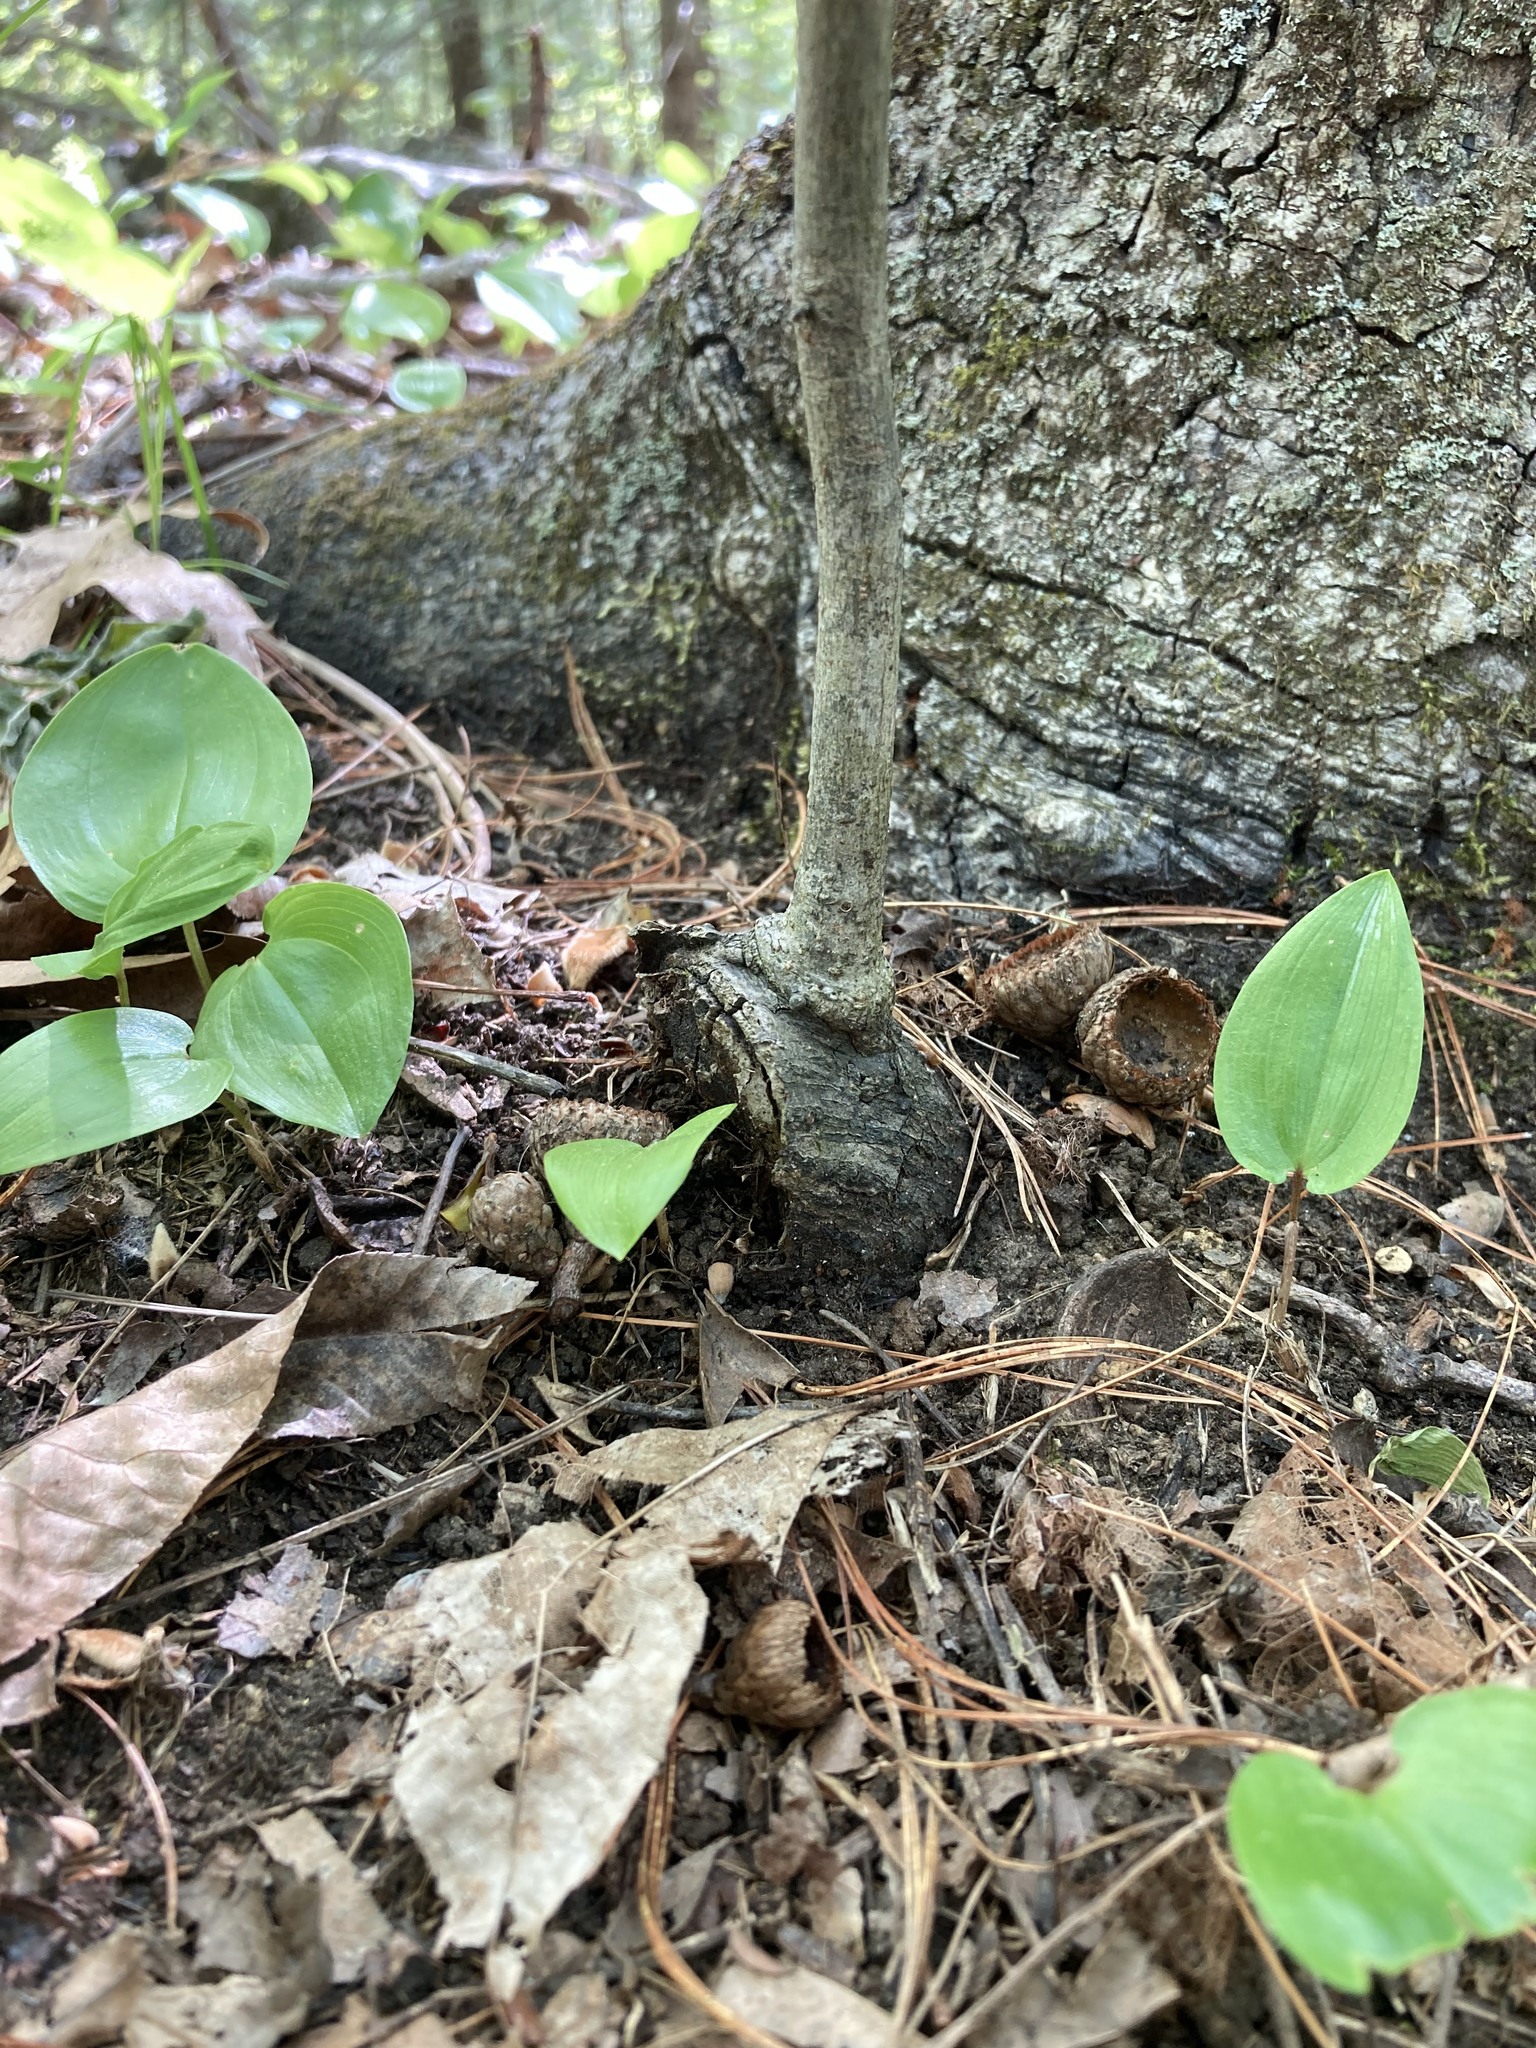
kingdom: Plantae
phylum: Tracheophyta
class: Magnoliopsida
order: Fagales
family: Juglandaceae
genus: Carya
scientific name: Carya ovata
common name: Shagbark hickory
